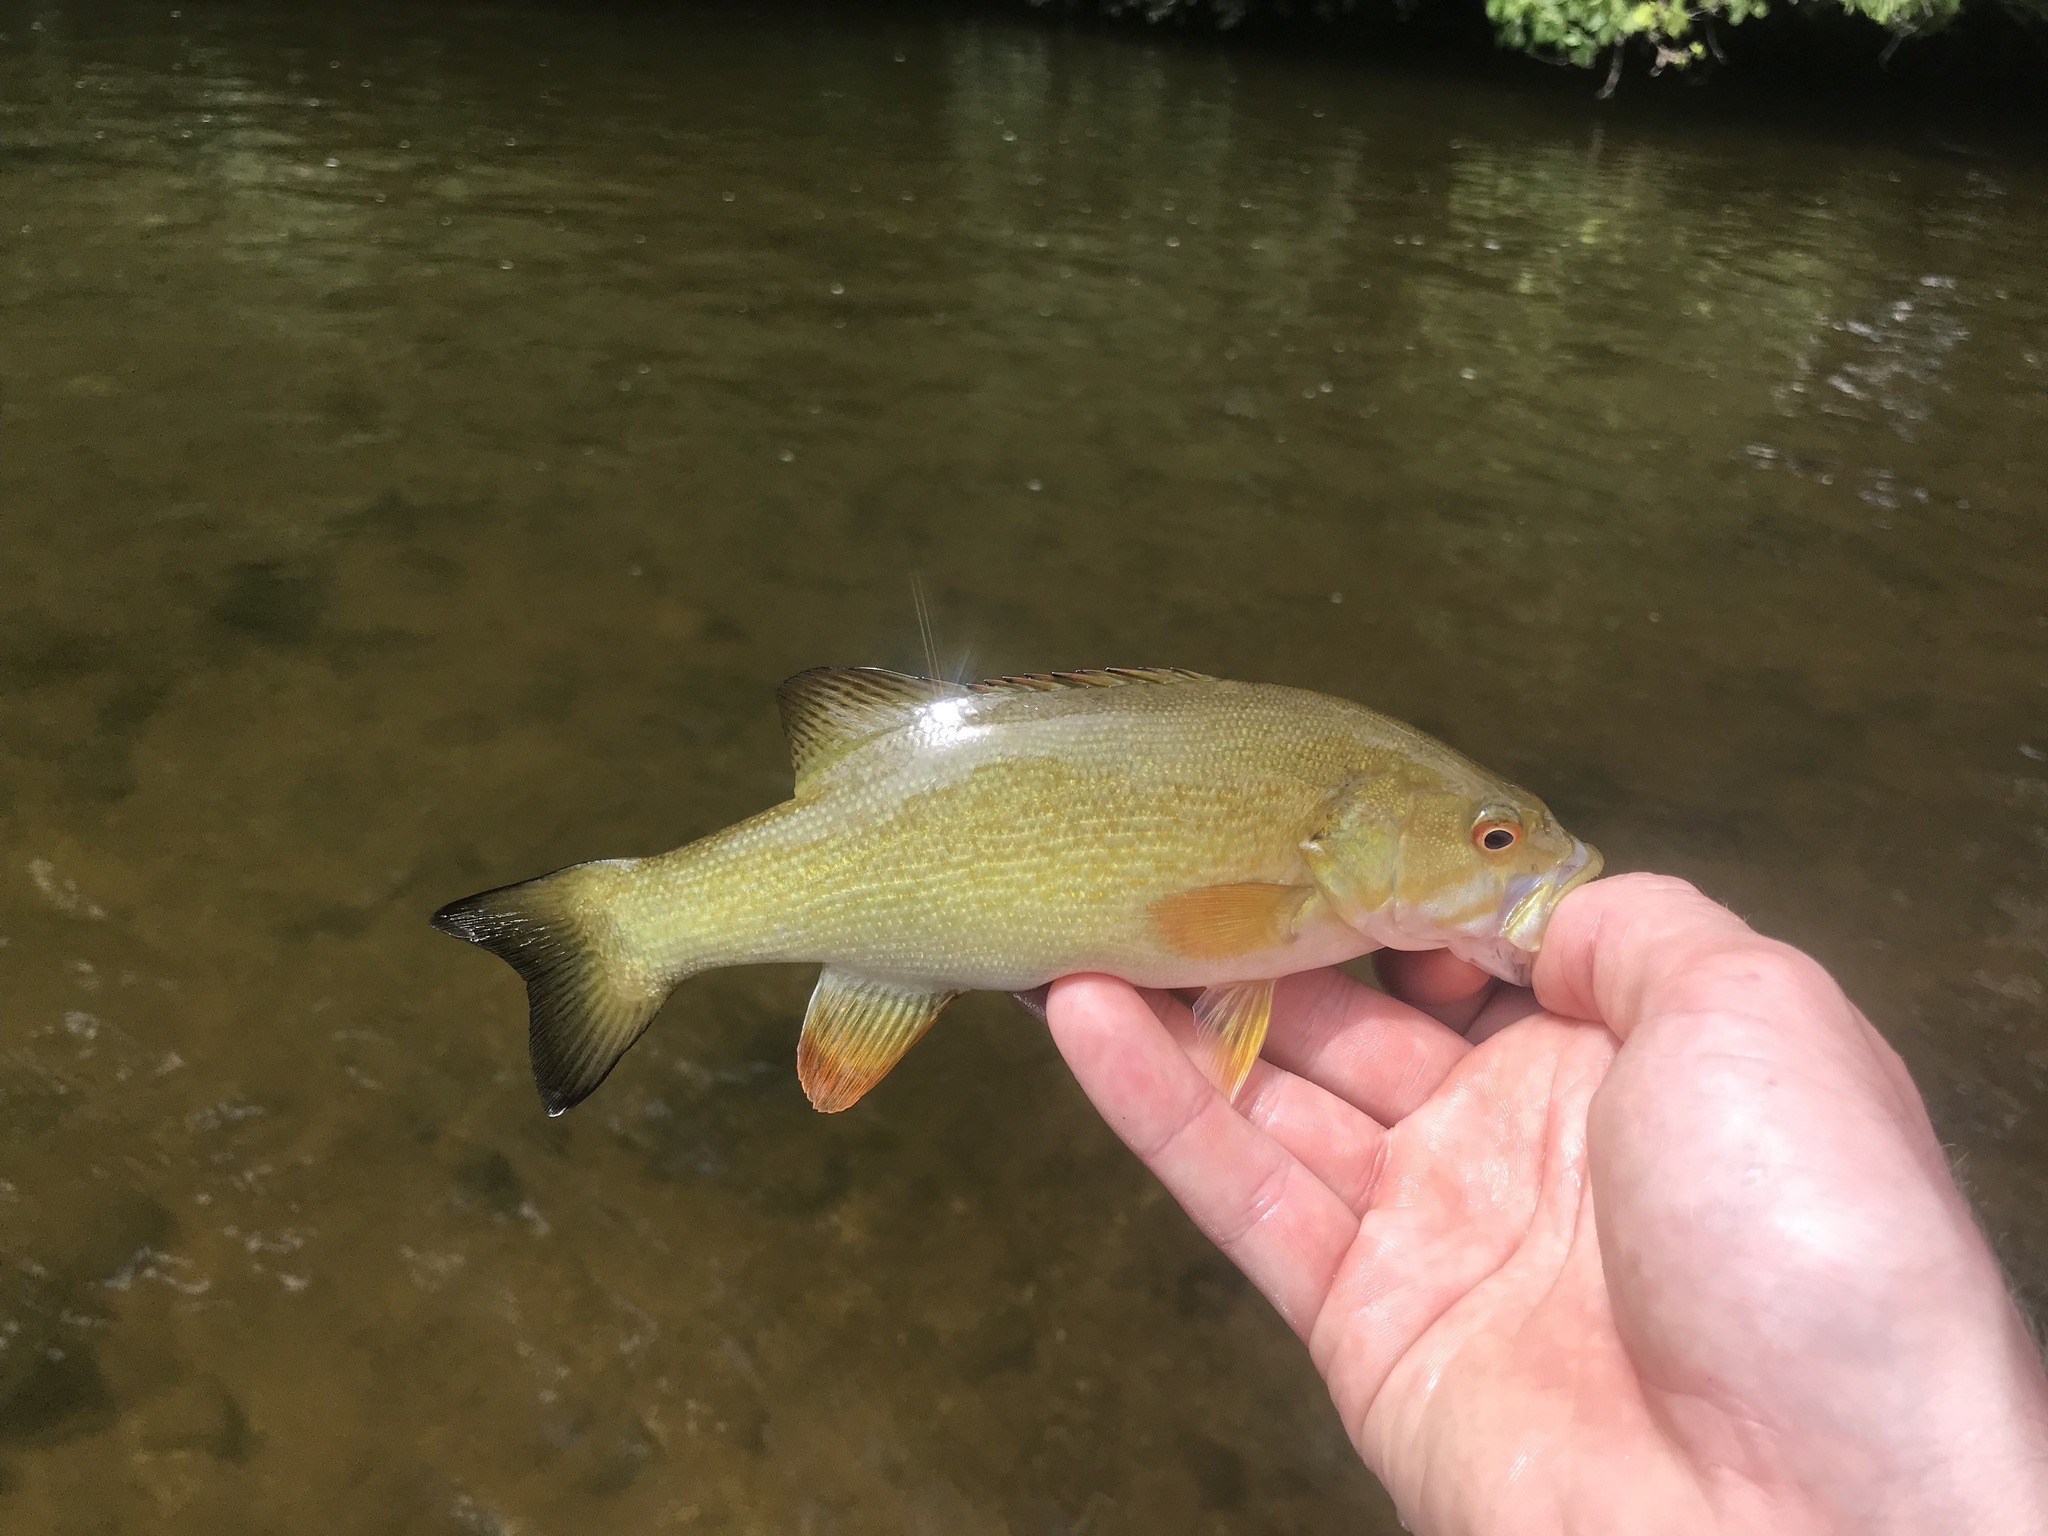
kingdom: Animalia
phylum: Chordata
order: Perciformes
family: Centrarchidae
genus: Micropterus
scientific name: Micropterus dolomieu
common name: Smallmouth bass
